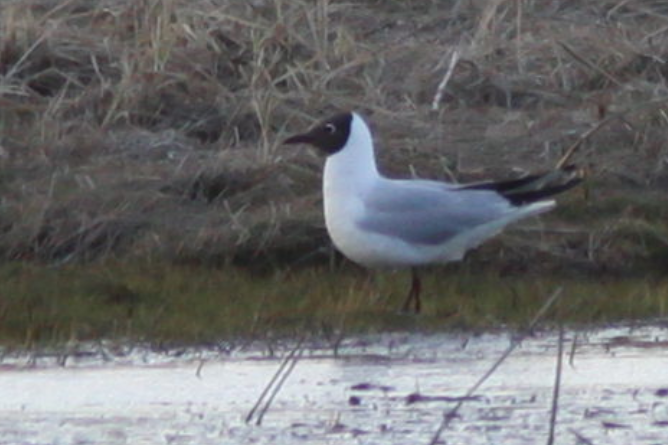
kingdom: Animalia
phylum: Chordata
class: Aves
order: Charadriiformes
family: Laridae
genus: Chroicocephalus
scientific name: Chroicocephalus ridibundus
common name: Black-headed gull
